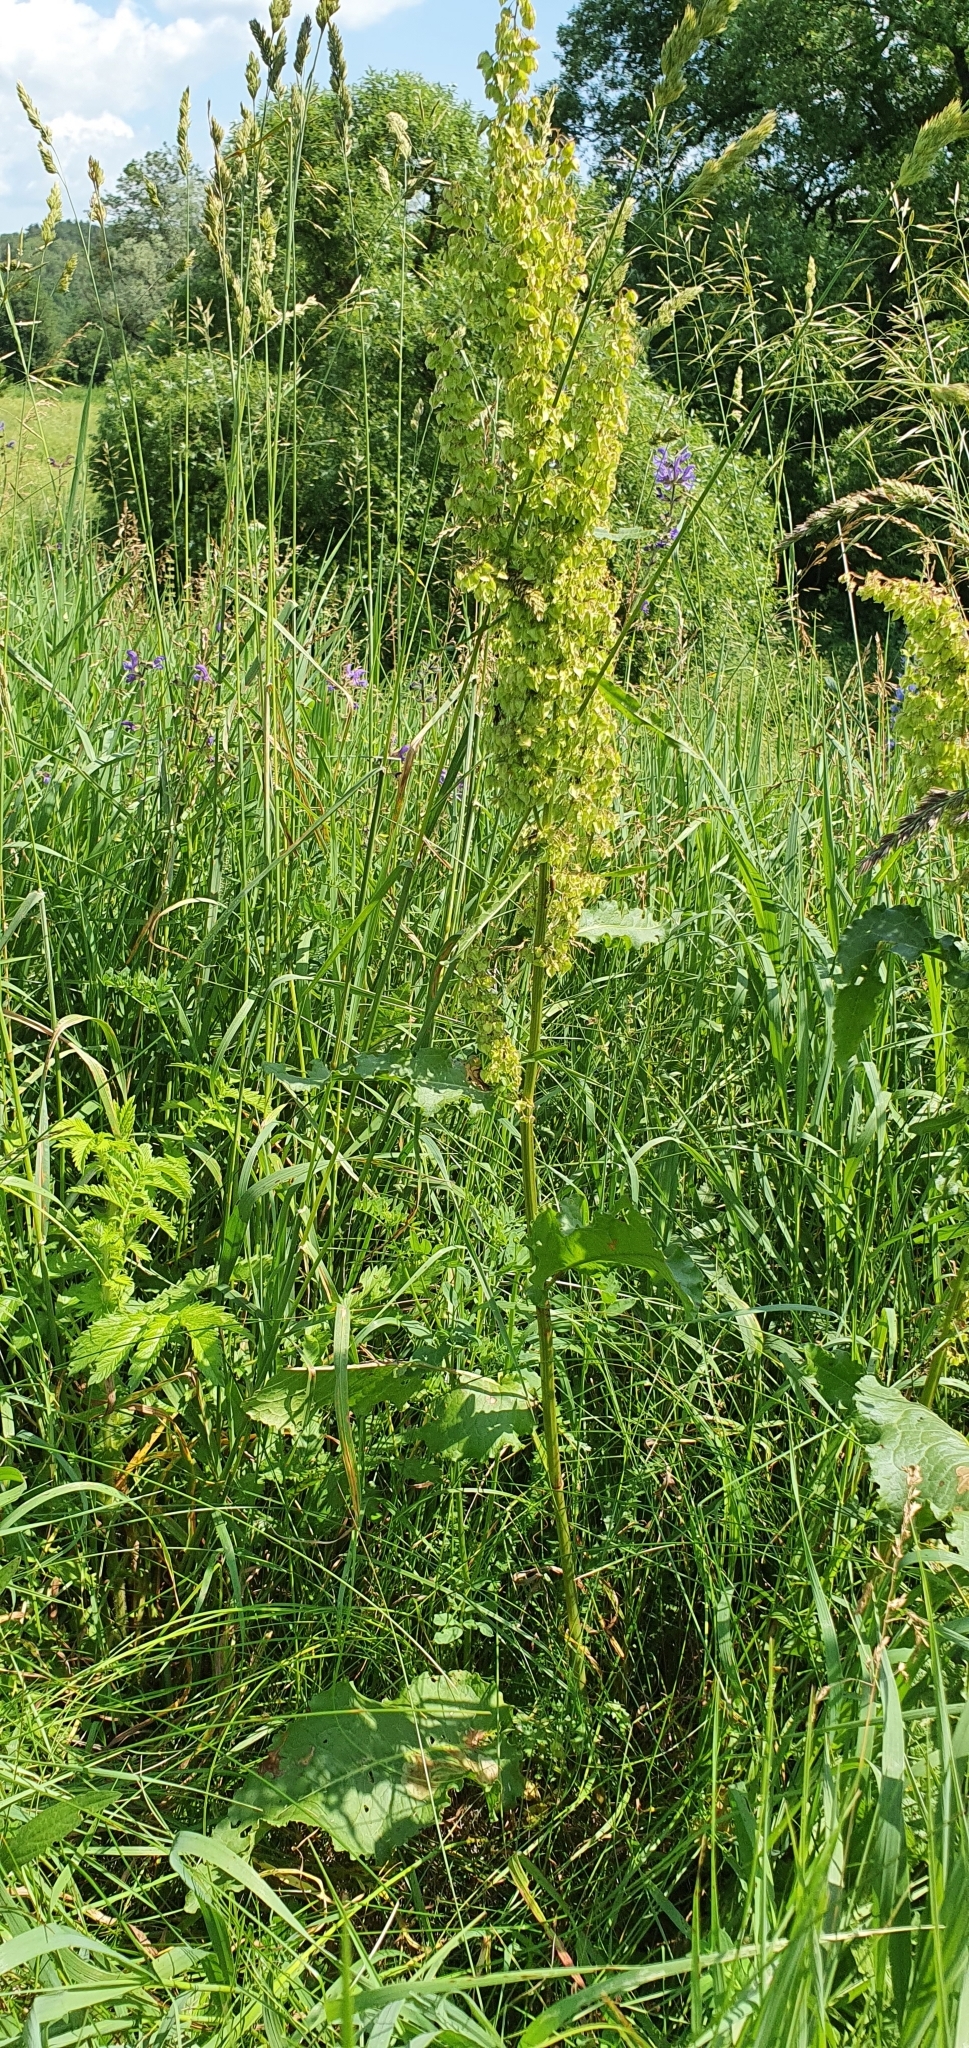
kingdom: Plantae
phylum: Tracheophyta
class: Magnoliopsida
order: Caryophyllales
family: Polygonaceae
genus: Rumex
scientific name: Rumex confertus
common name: Russian dock
